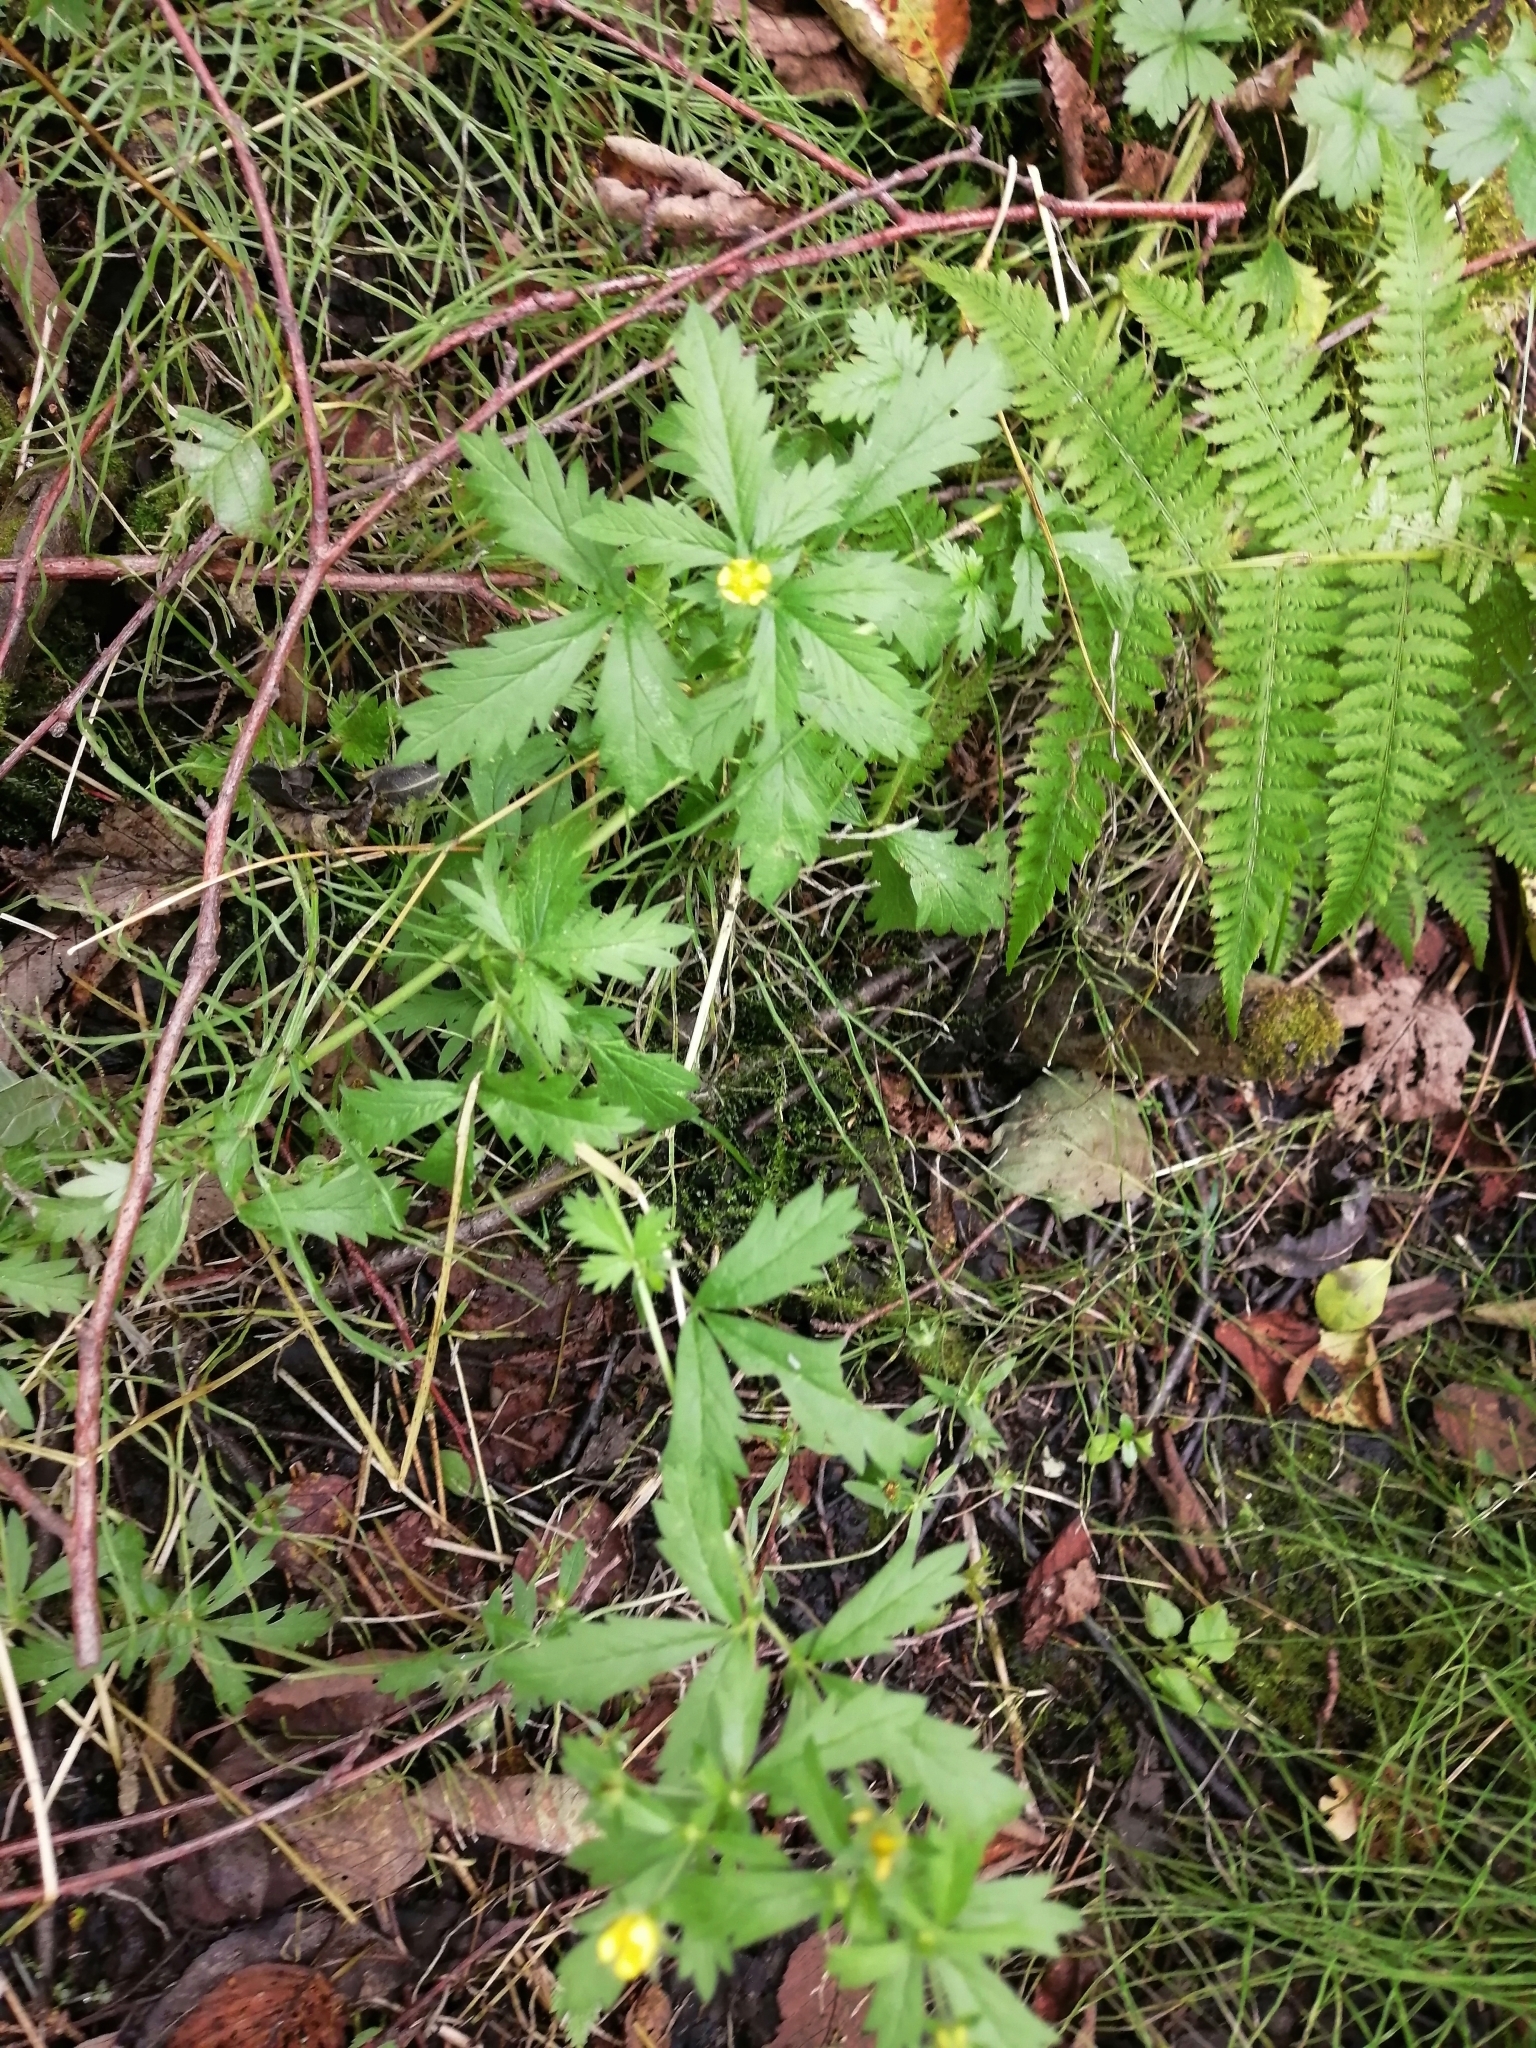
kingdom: Plantae
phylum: Tracheophyta
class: Magnoliopsida
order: Rosales
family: Rosaceae
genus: Potentilla
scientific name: Potentilla norvegica
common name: Ternate-leaved cinquefoil
